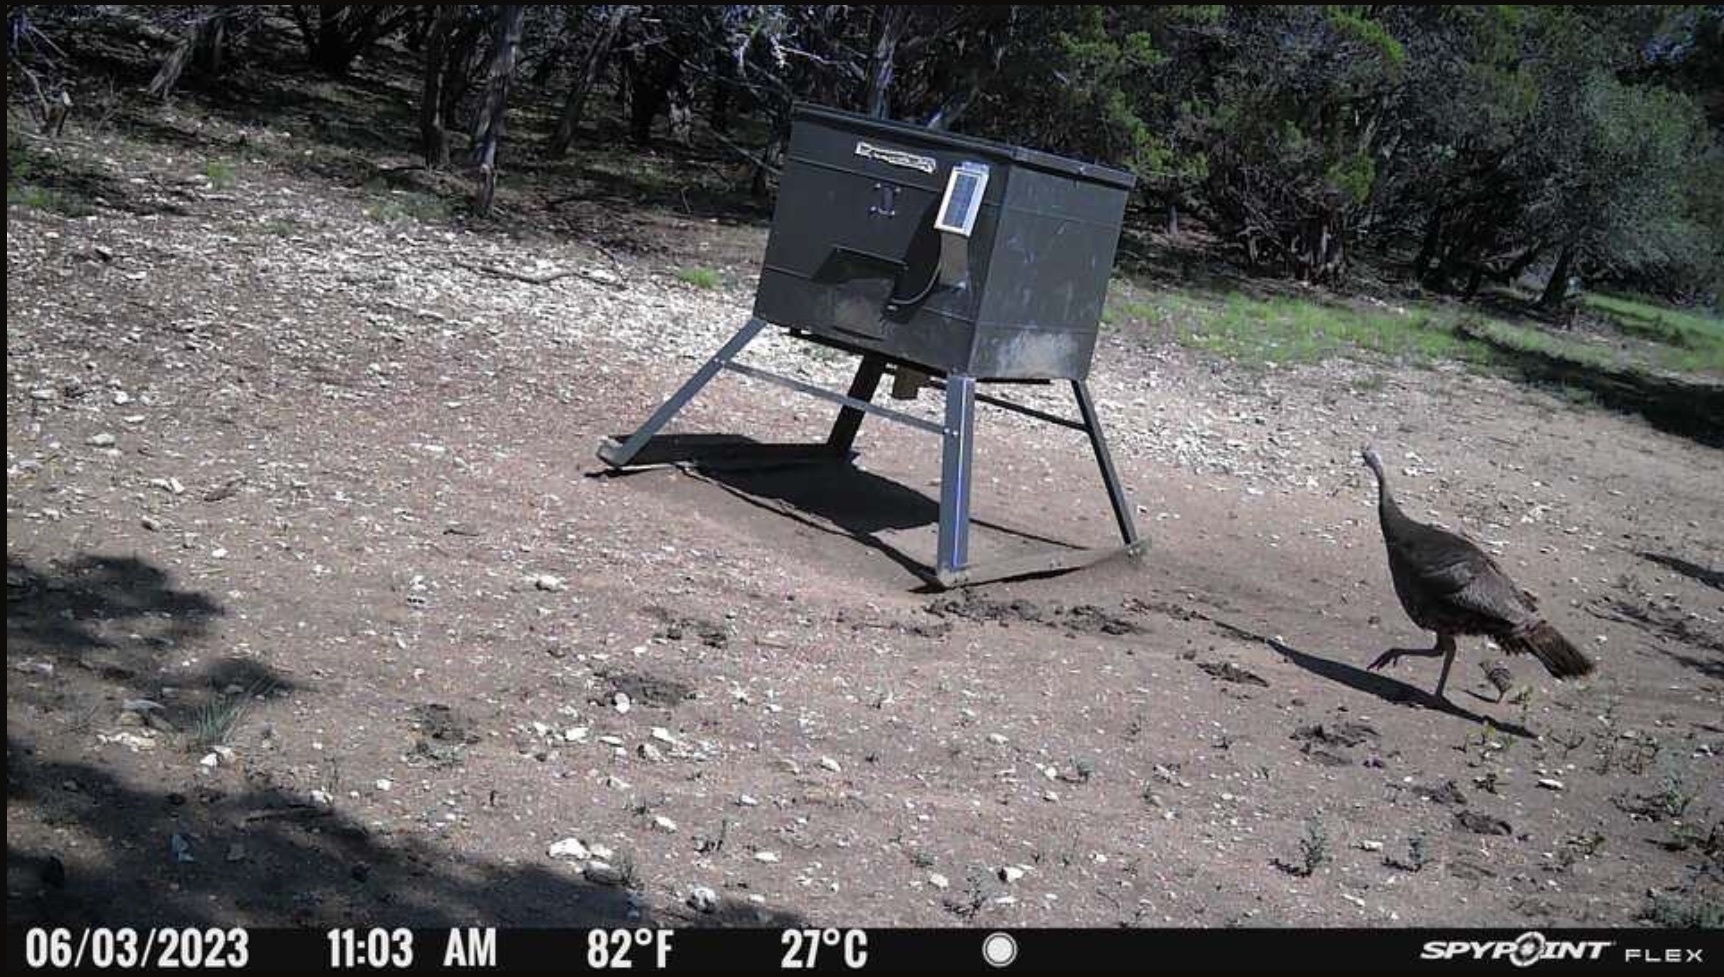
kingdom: Animalia
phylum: Chordata
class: Aves
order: Galliformes
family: Phasianidae
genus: Meleagris
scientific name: Meleagris gallopavo
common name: Wild turkey
